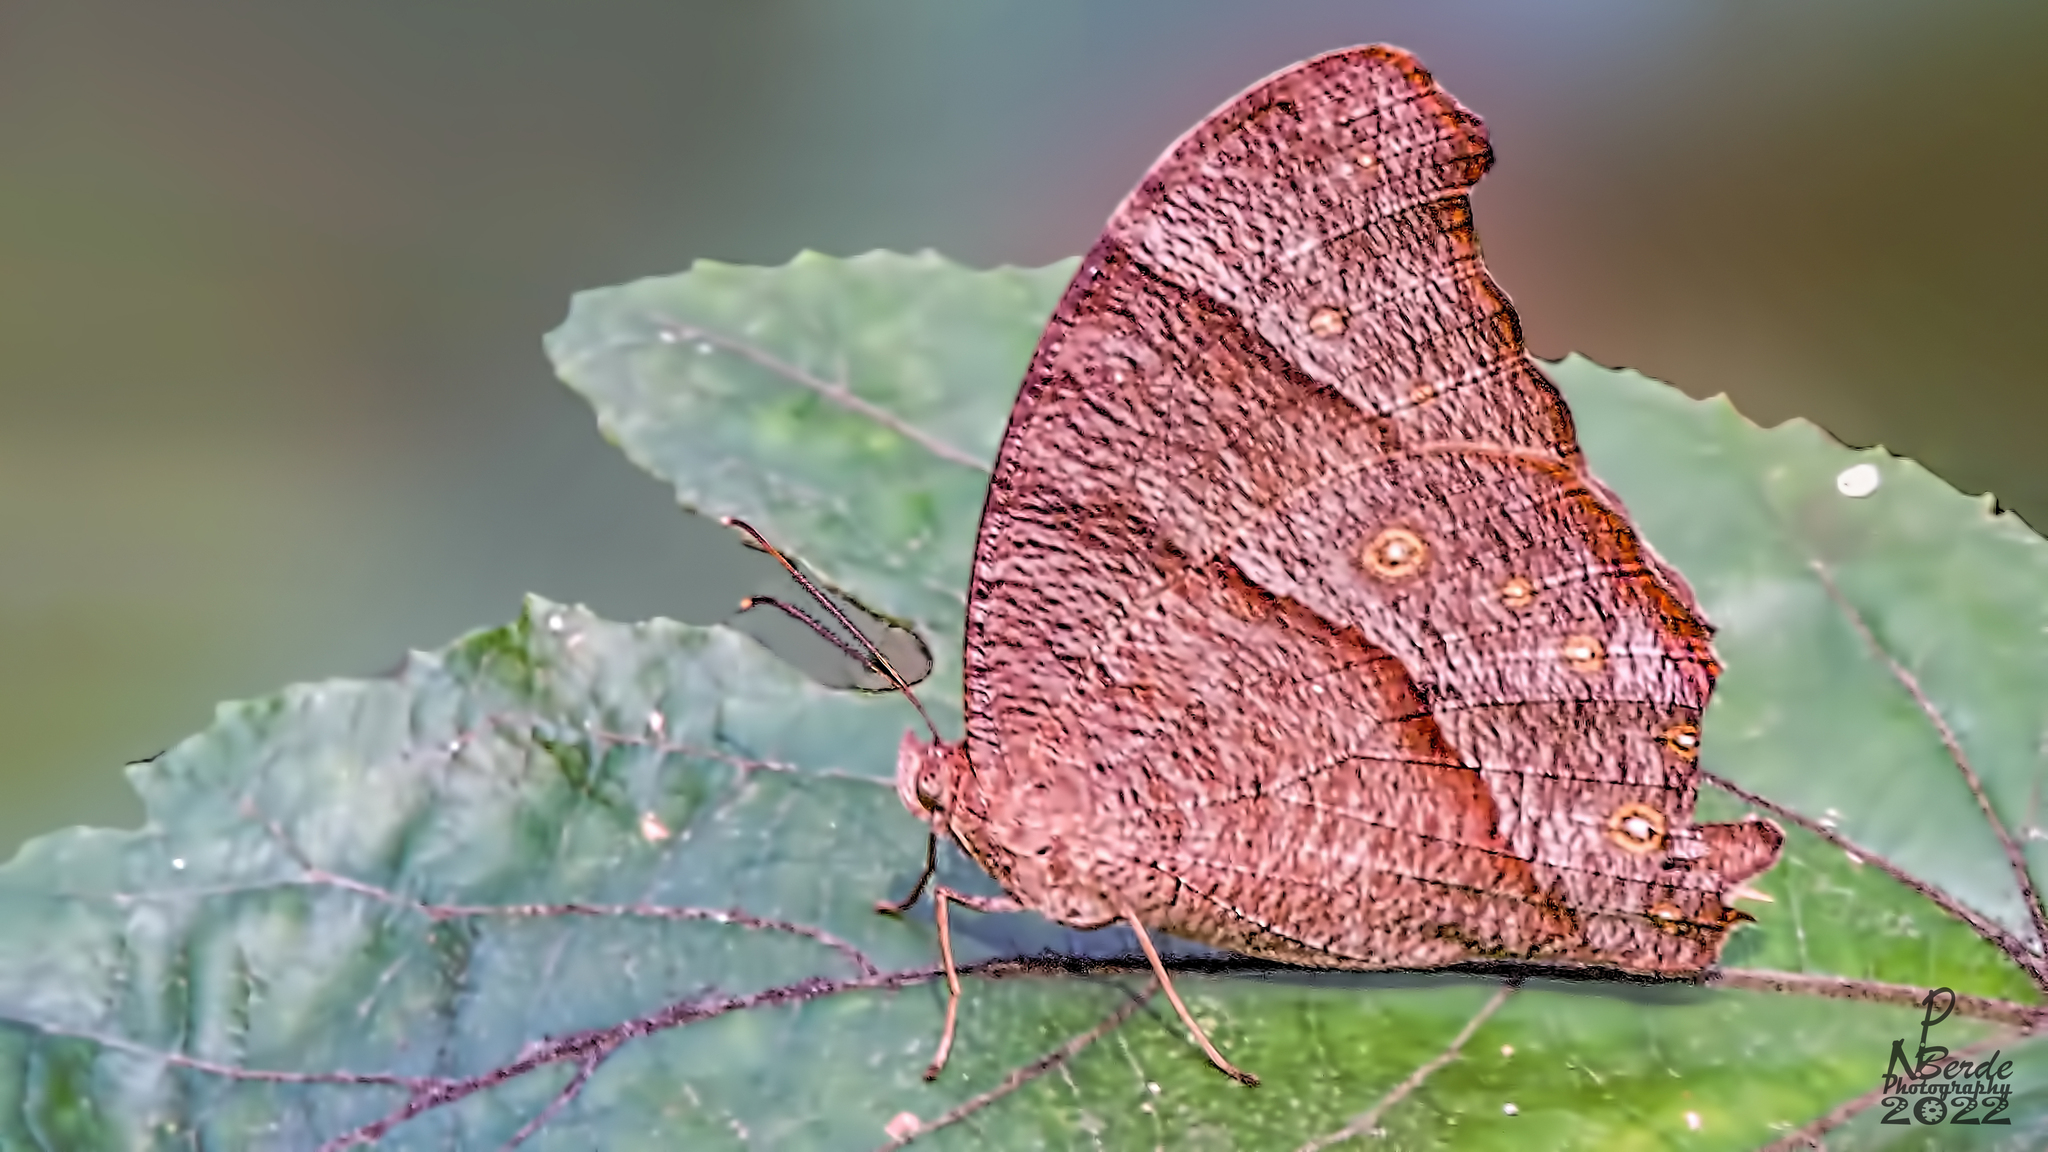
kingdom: Animalia
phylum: Arthropoda
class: Insecta
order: Lepidoptera
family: Nymphalidae
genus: Melanitis
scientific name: Melanitis phedima
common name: Dark evening brown
